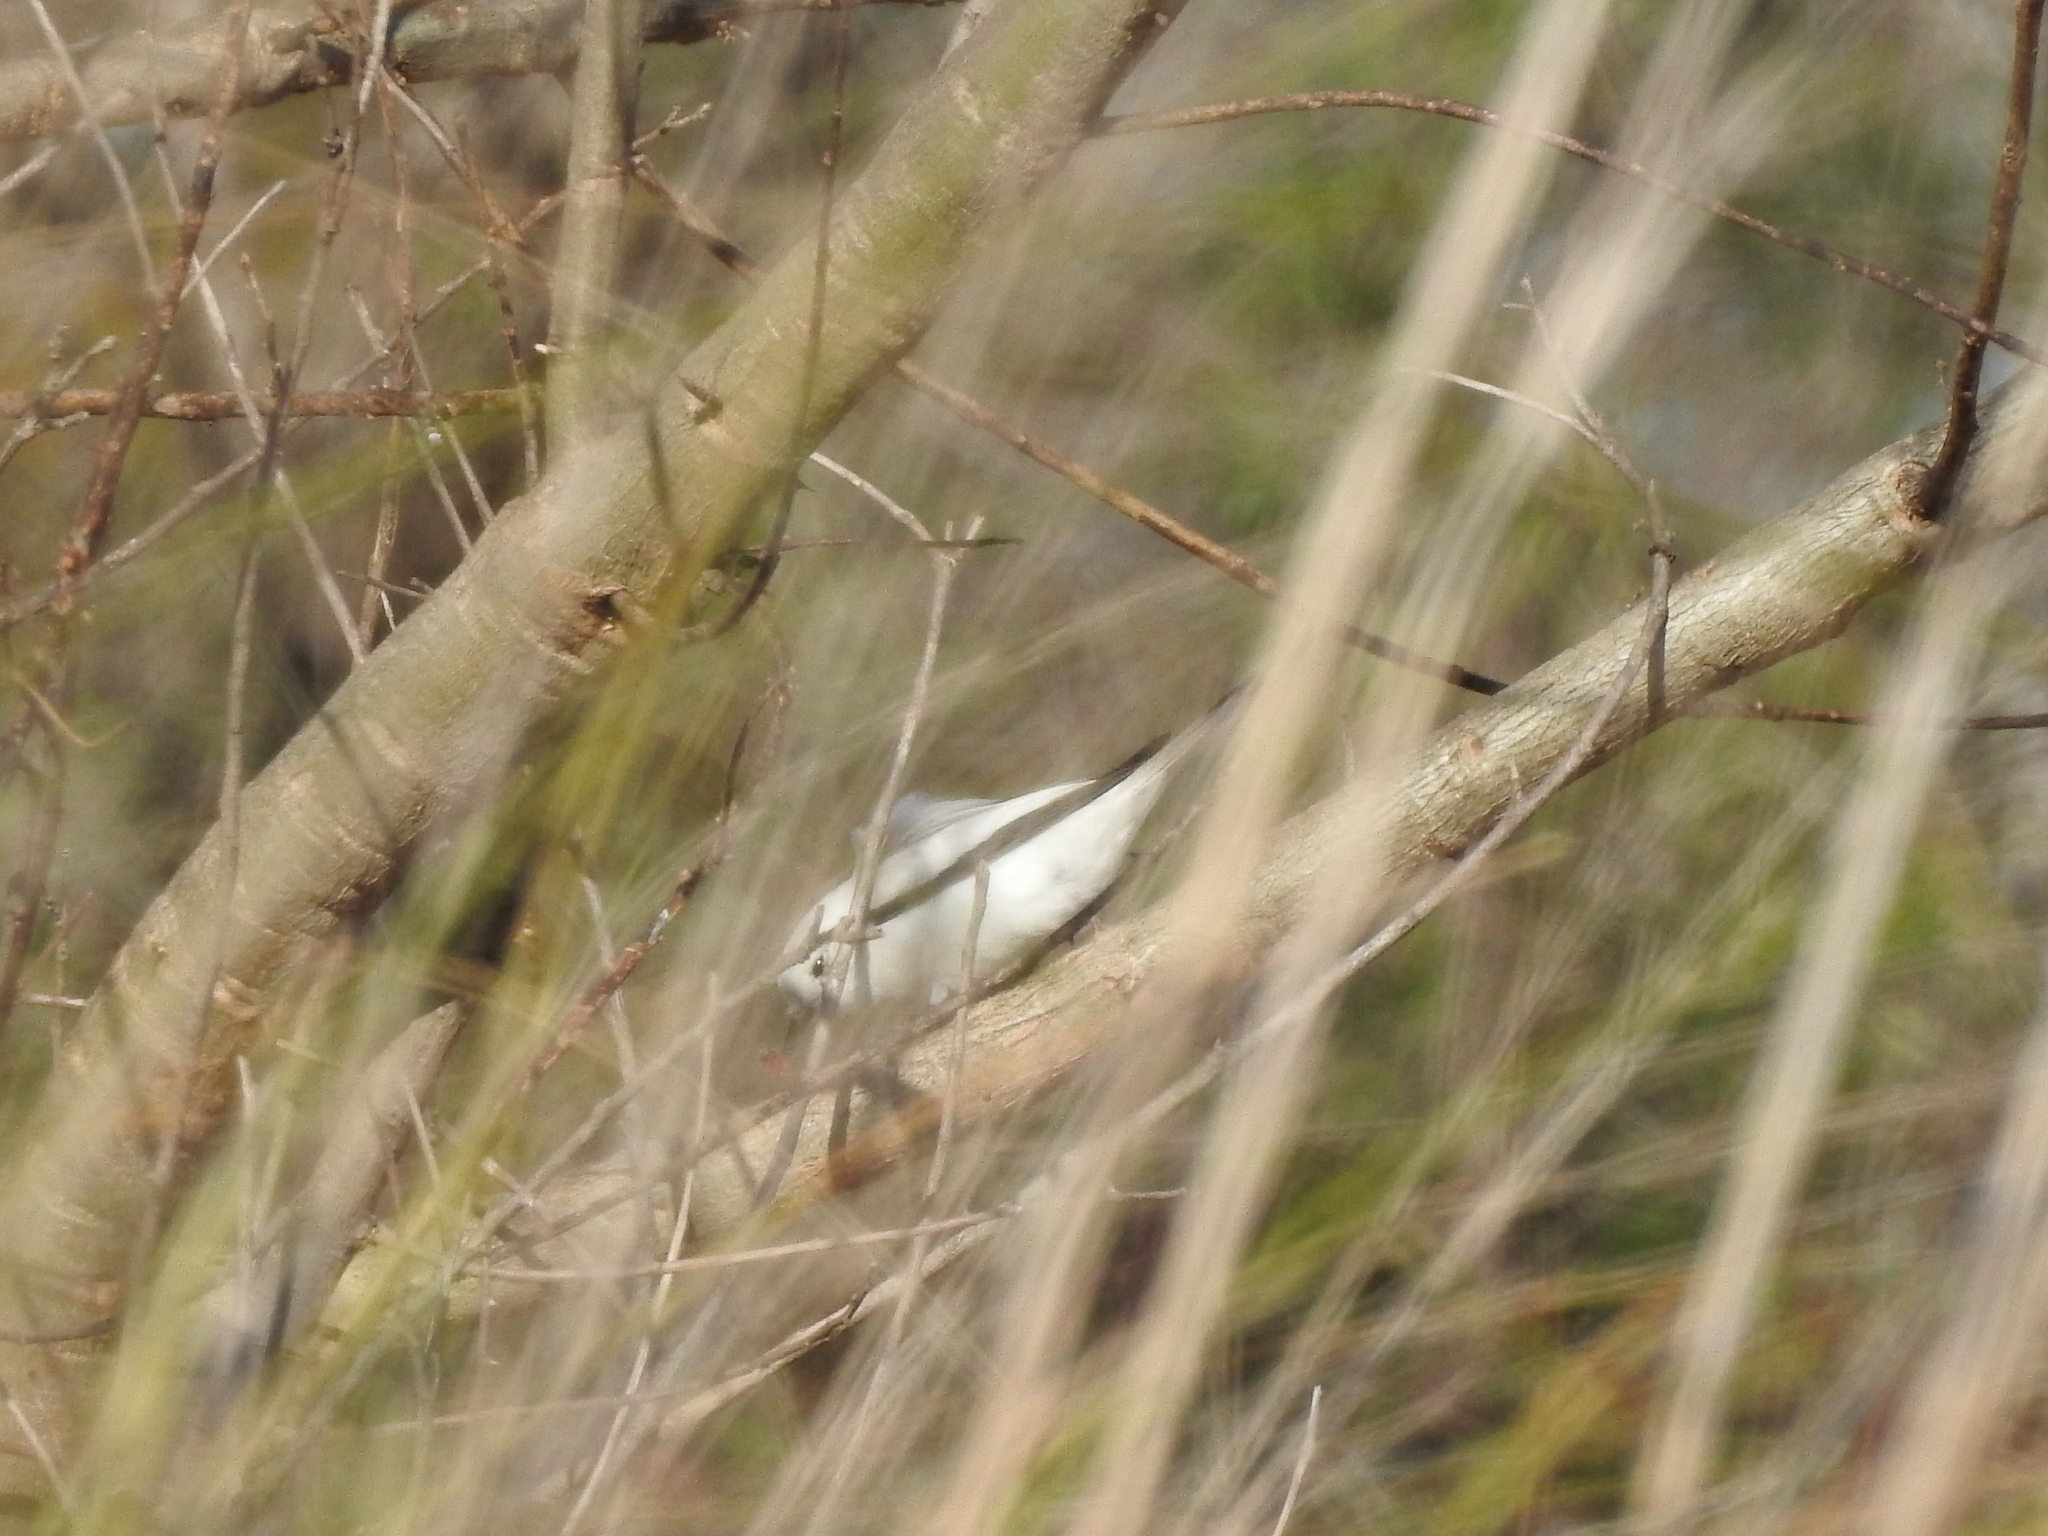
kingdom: Animalia
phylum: Chordata
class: Aves
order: Passeriformes
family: Tyrannidae
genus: Xolmis
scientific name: Xolmis irupero
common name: White monjita
